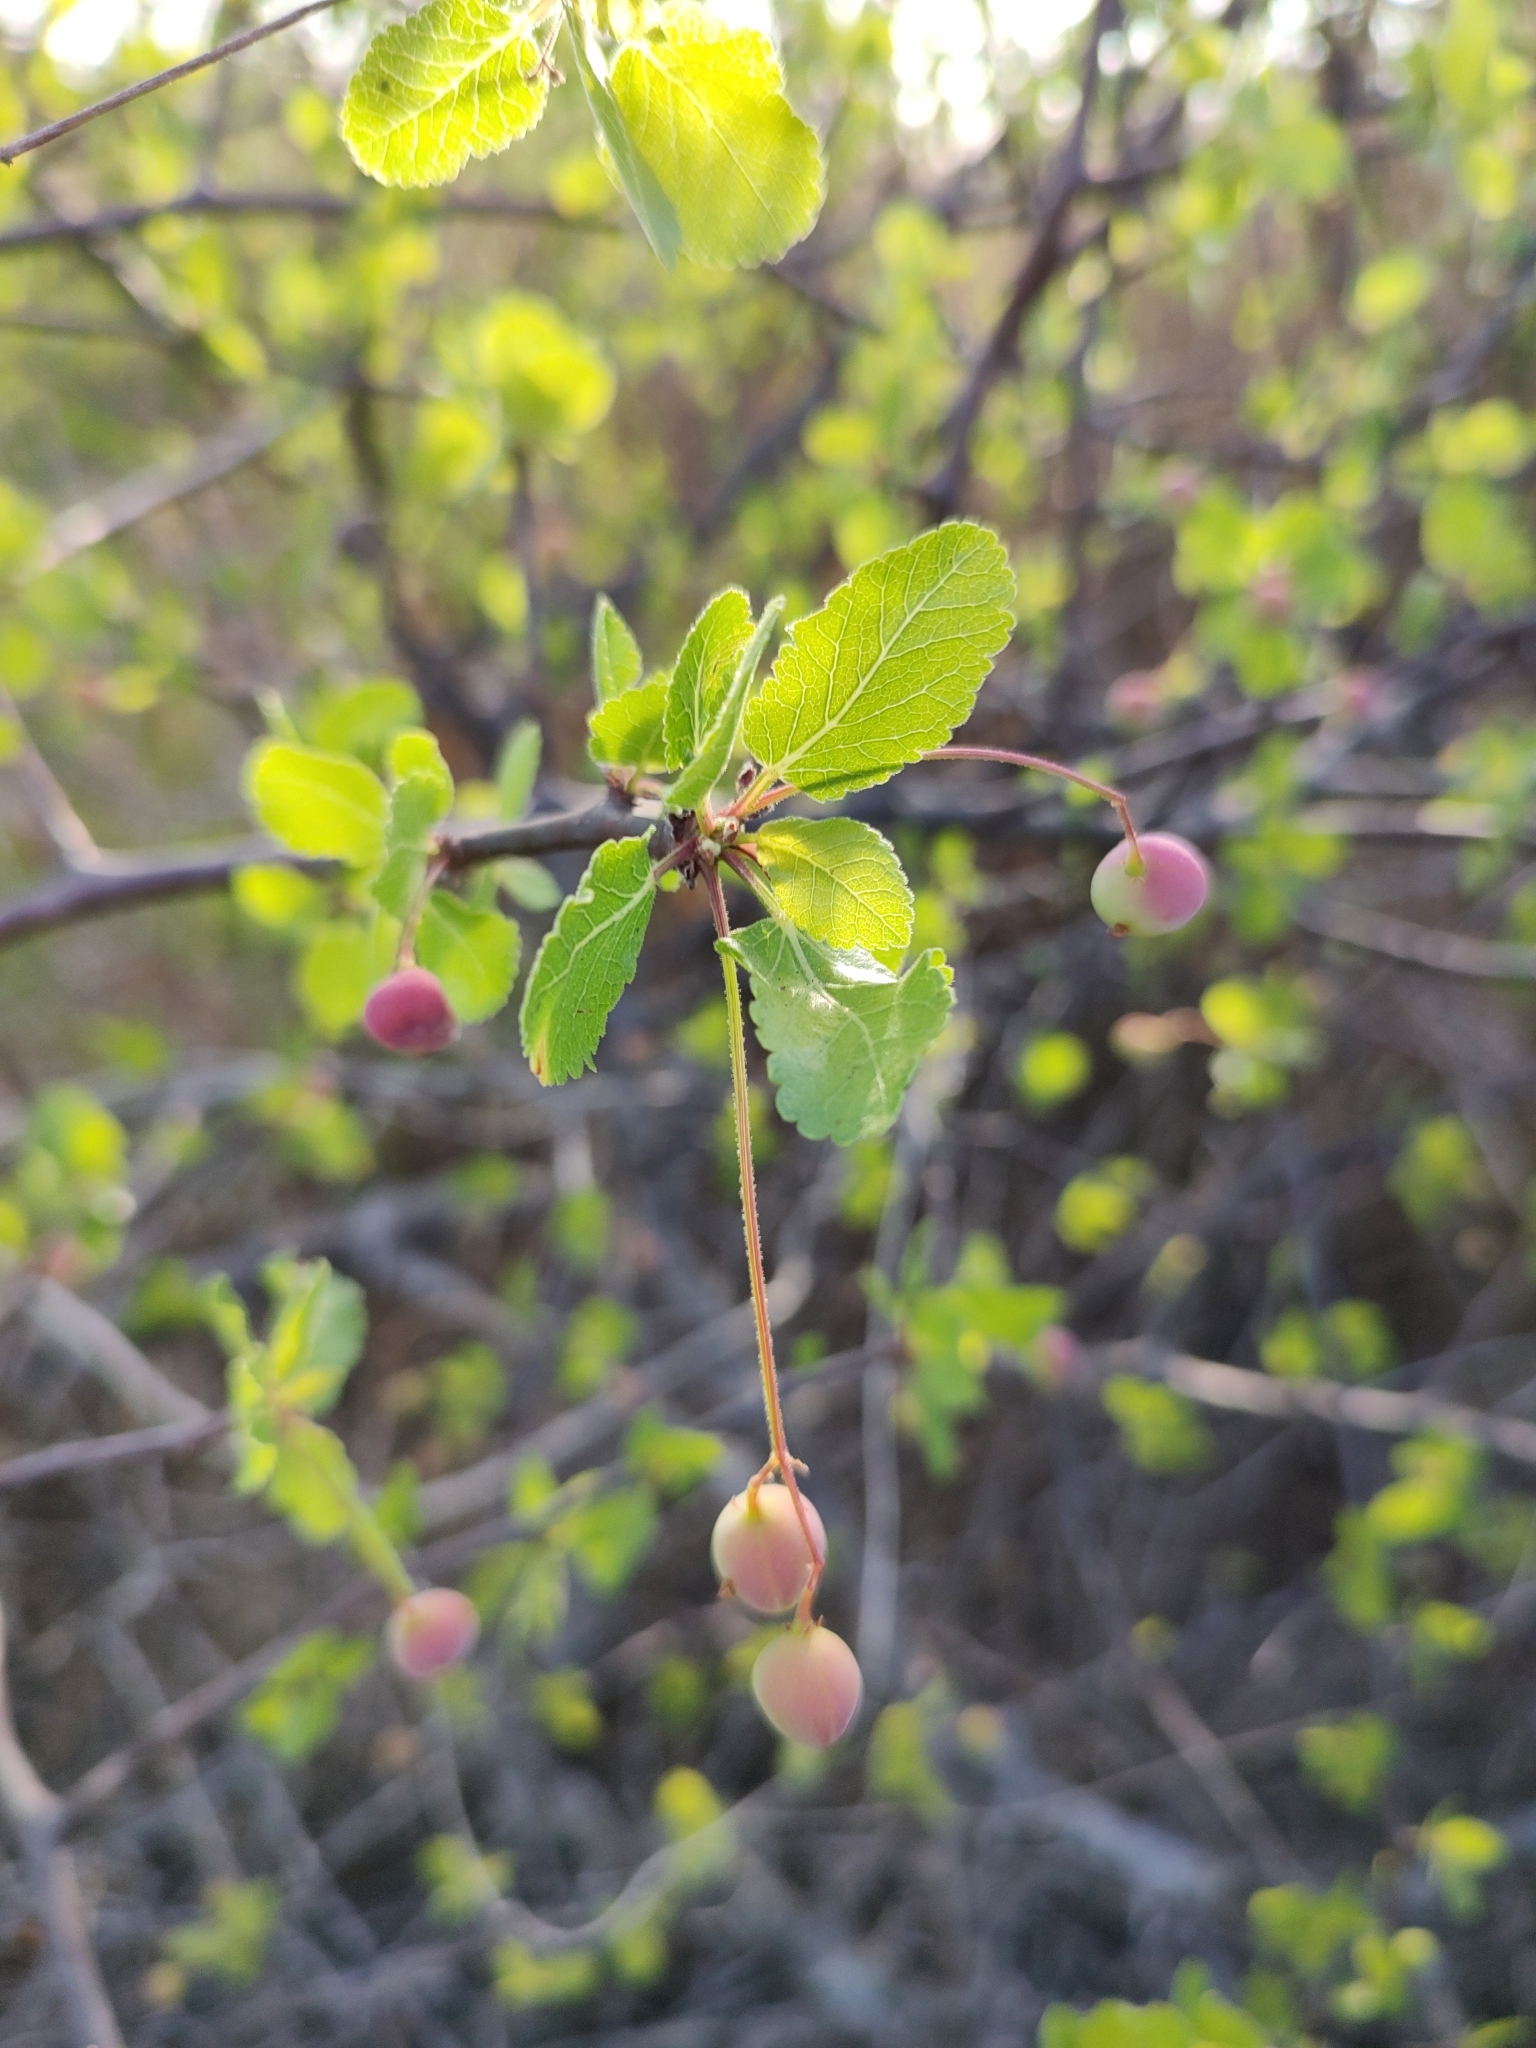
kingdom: Plantae
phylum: Tracheophyta
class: Magnoliopsida
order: Sapindales
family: Burseraceae
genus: Bursera
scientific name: Bursera epinnata
